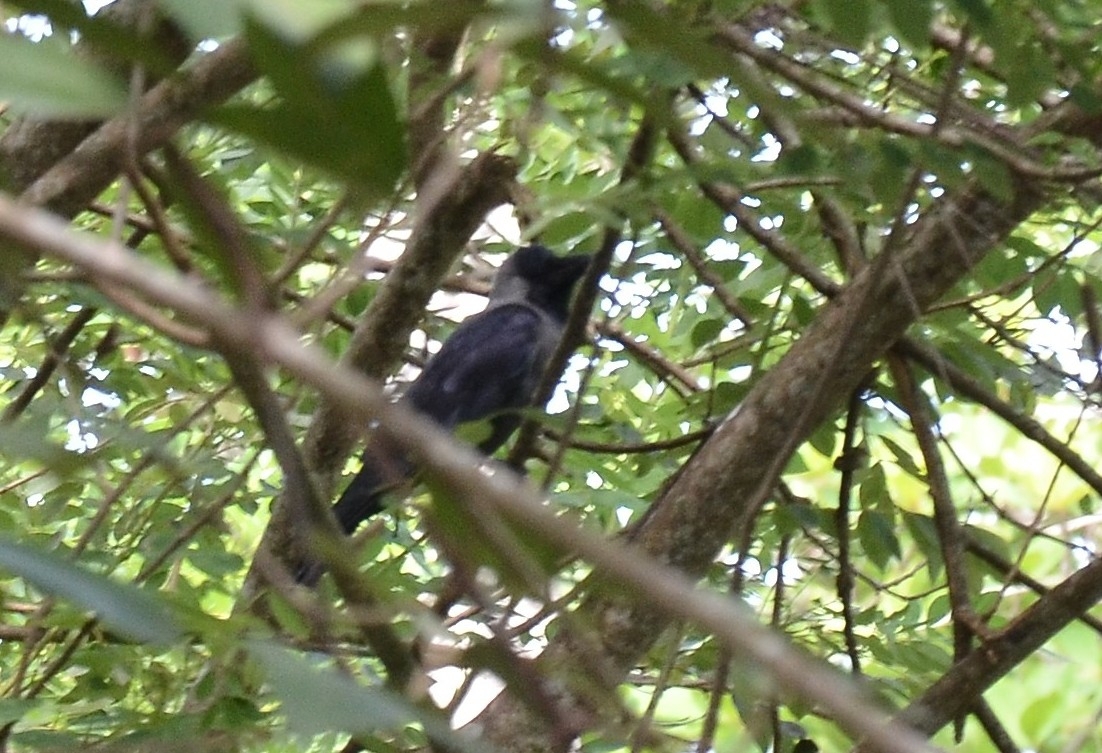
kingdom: Animalia
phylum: Chordata
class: Aves
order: Passeriformes
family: Corvidae
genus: Corvus
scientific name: Corvus splendens
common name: House crow
